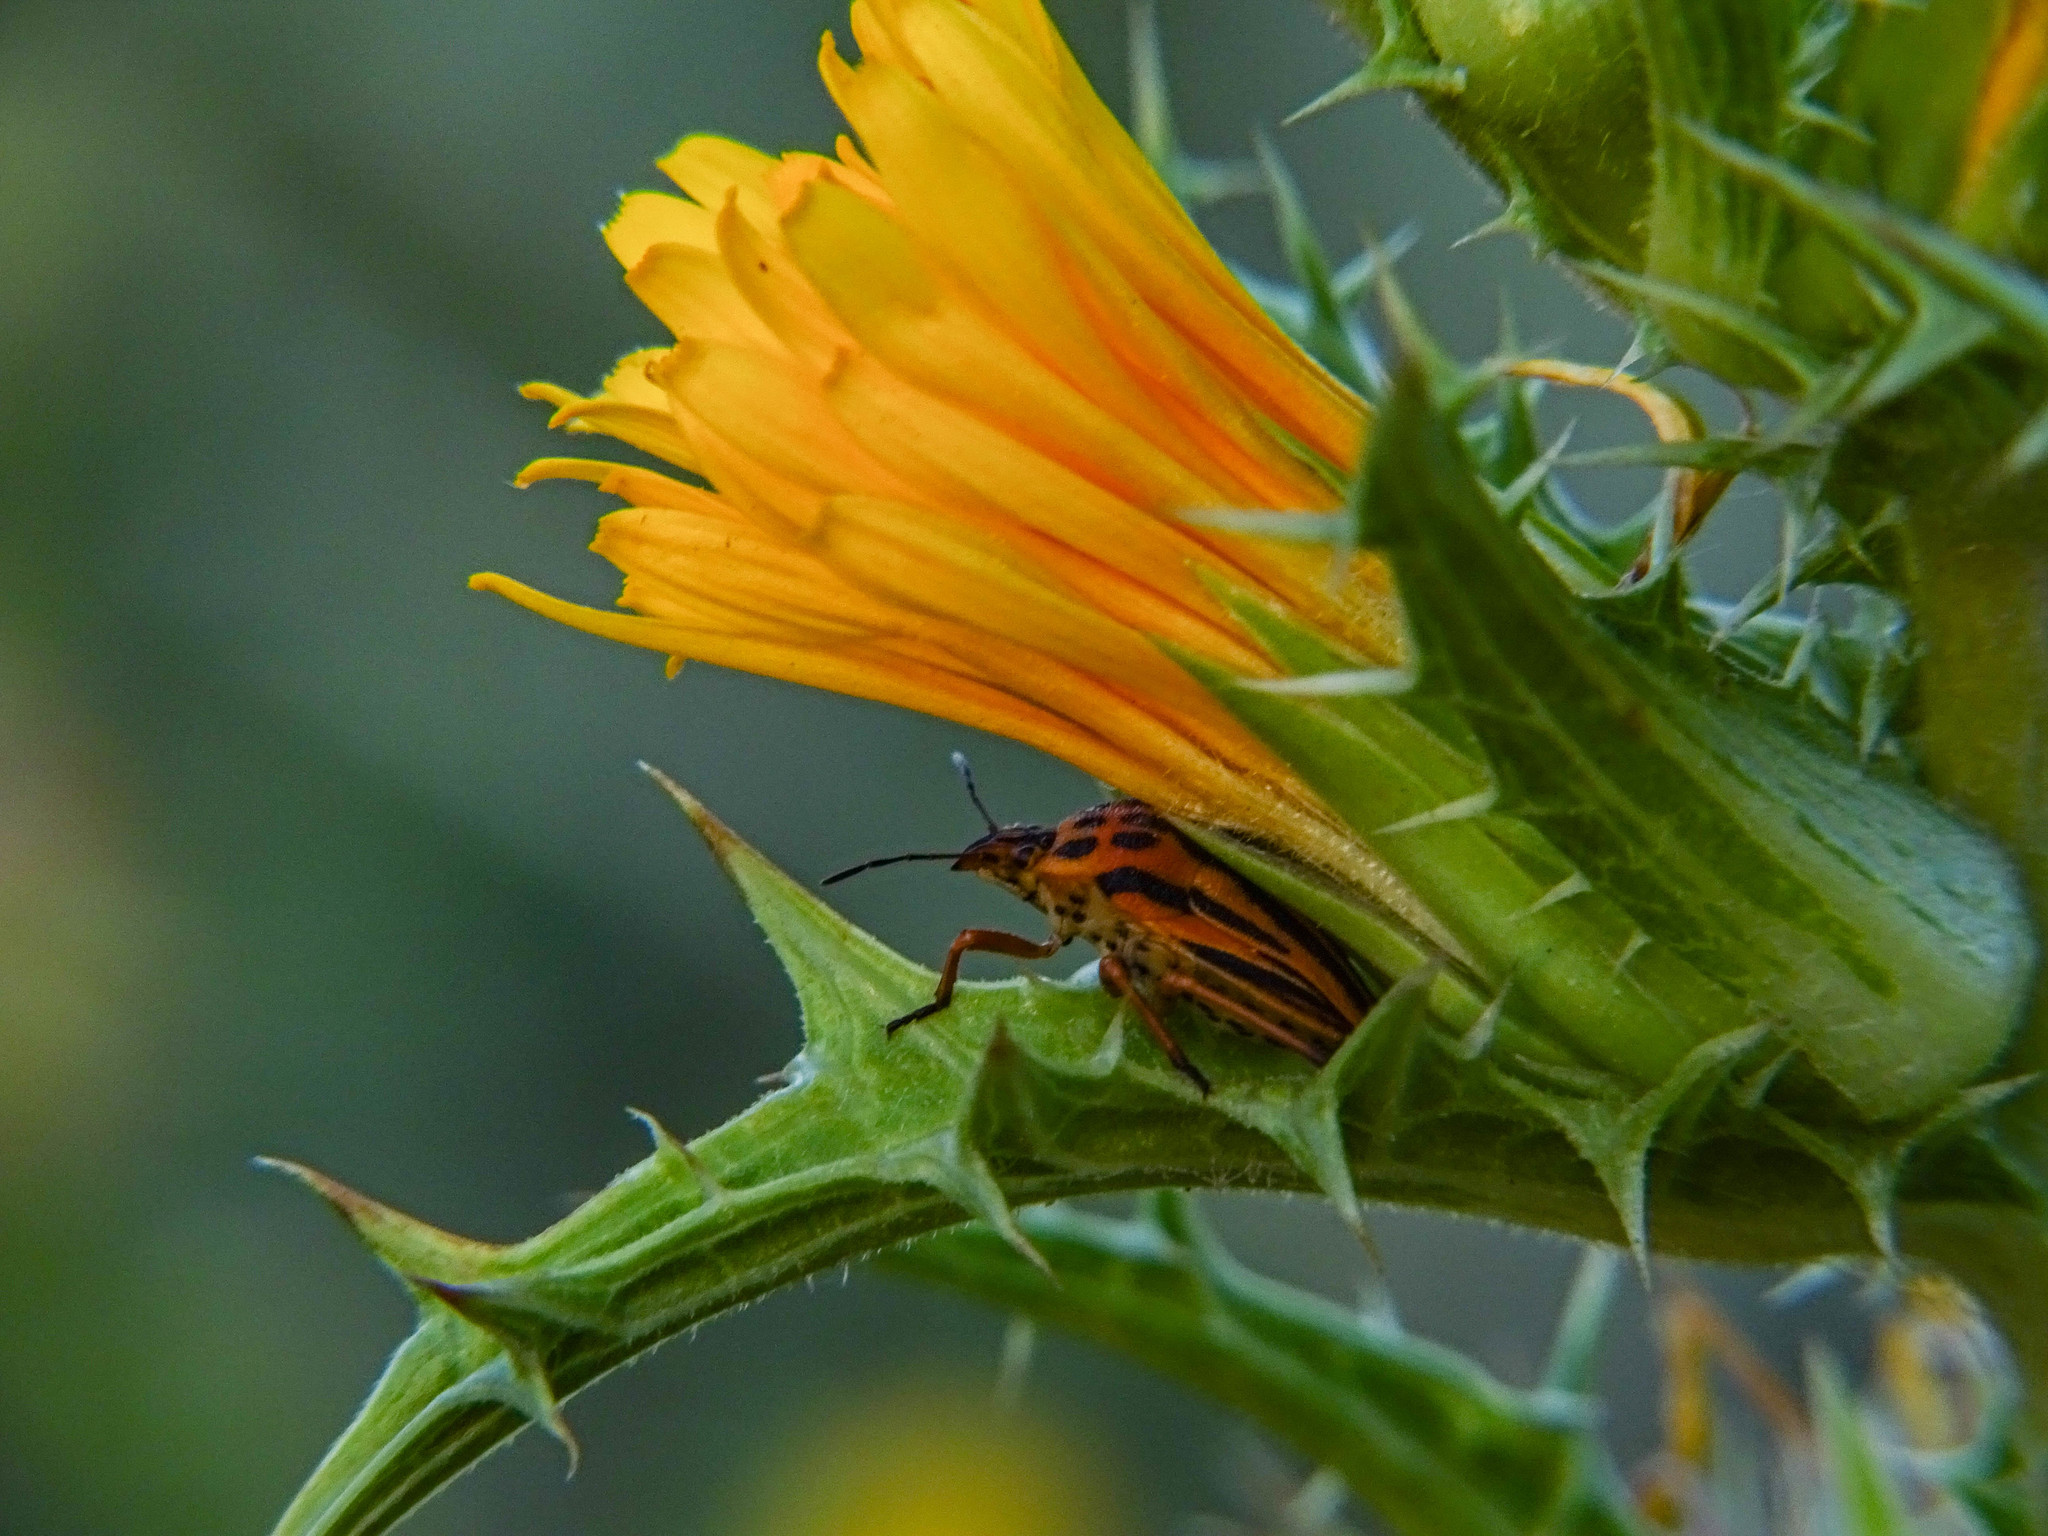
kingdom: Animalia
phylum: Arthropoda
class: Insecta
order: Hemiptera
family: Pentatomidae
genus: Graphosoma
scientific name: Graphosoma semipunctatum
